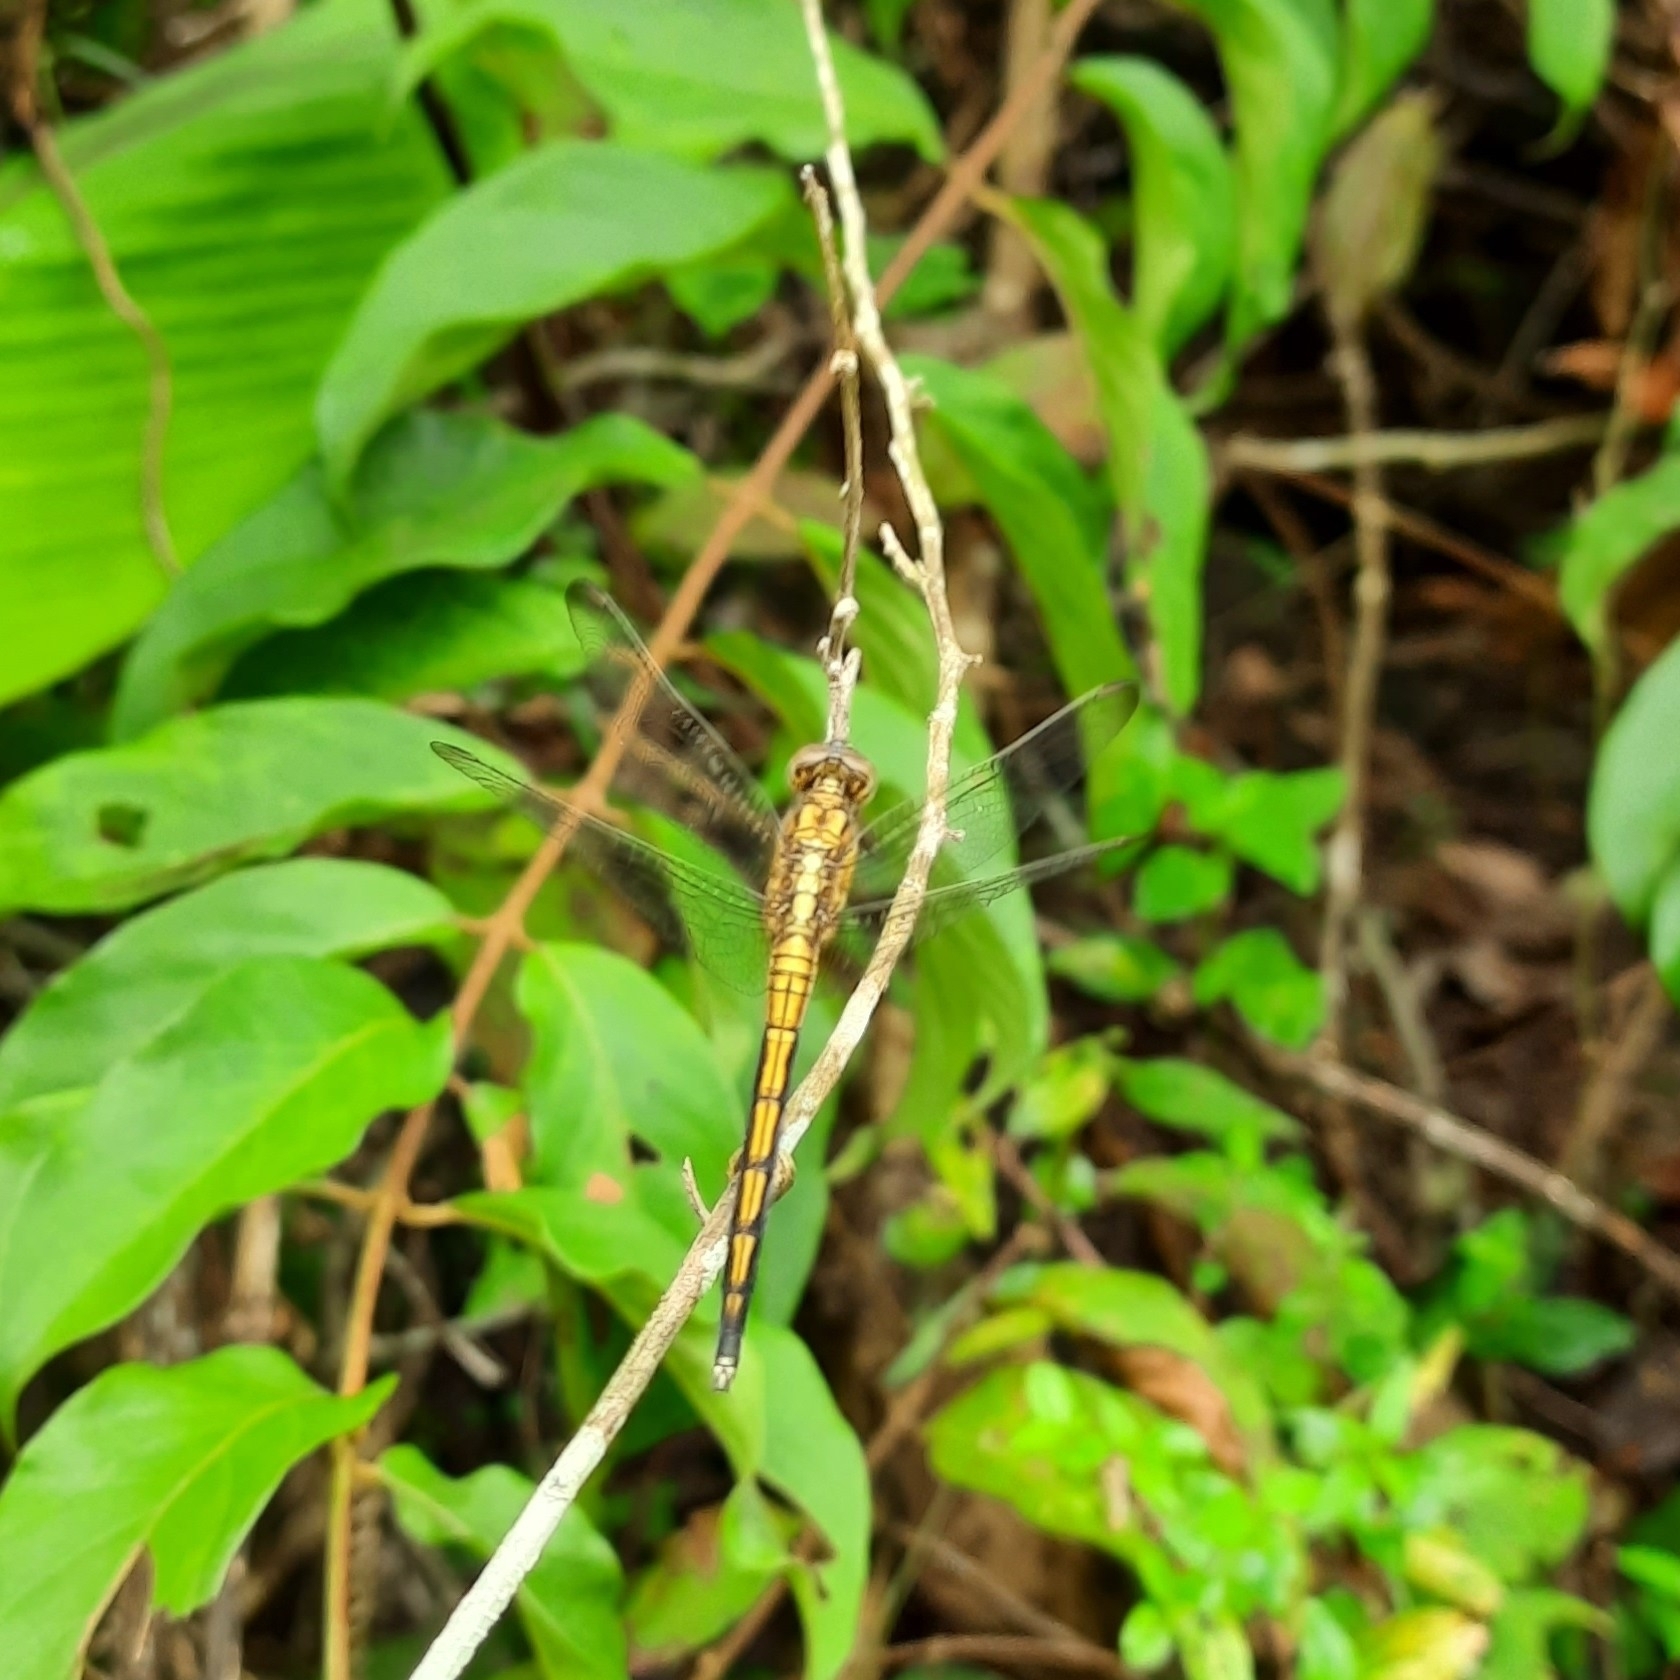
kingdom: Animalia
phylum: Arthropoda
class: Insecta
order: Odonata
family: Libellulidae
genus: Orthetrum
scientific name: Orthetrum luzonicum
